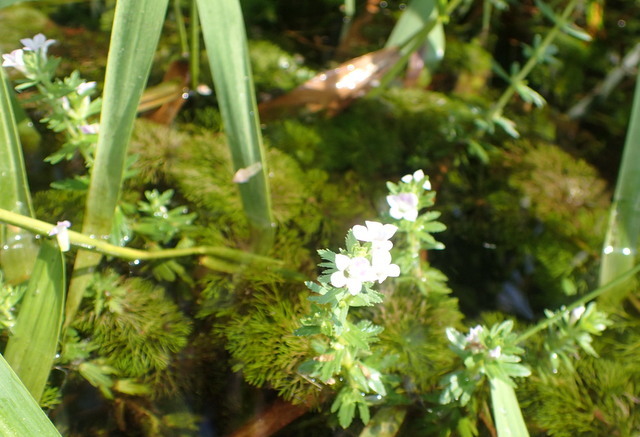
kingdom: Plantae
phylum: Tracheophyta
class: Magnoliopsida
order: Lamiales
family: Plantaginaceae
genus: Limnophila
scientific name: Limnophila sessiliflora
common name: Asian marshweed
